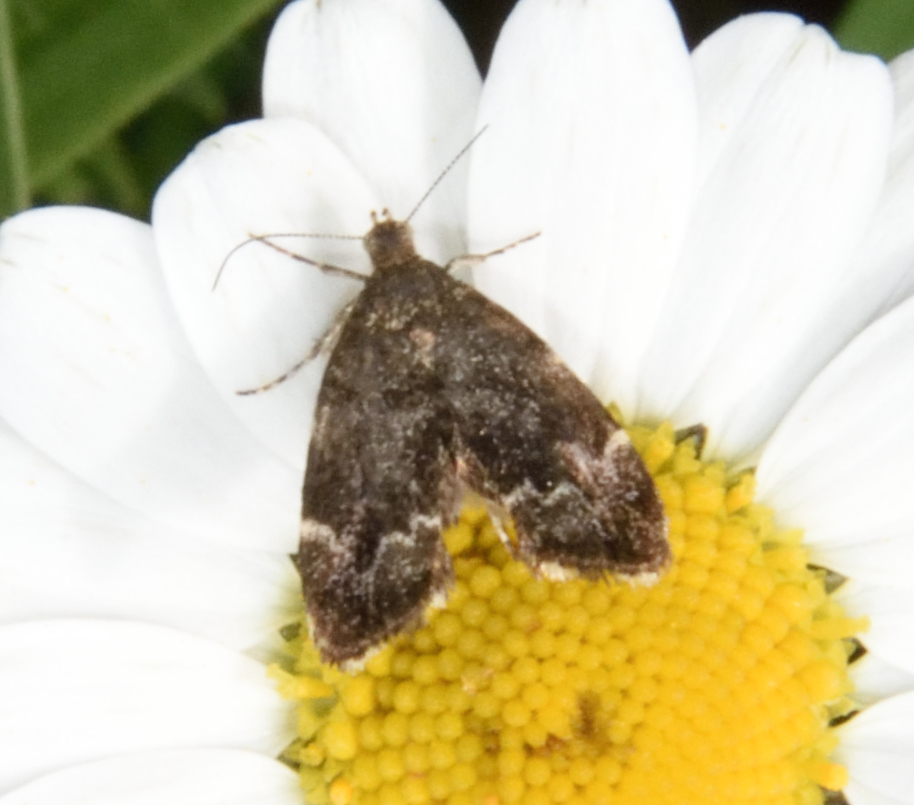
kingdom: Animalia
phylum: Arthropoda
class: Insecta
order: Lepidoptera
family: Choreutidae
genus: Anthophila
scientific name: Anthophila fabriciana
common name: Nettle-tap
